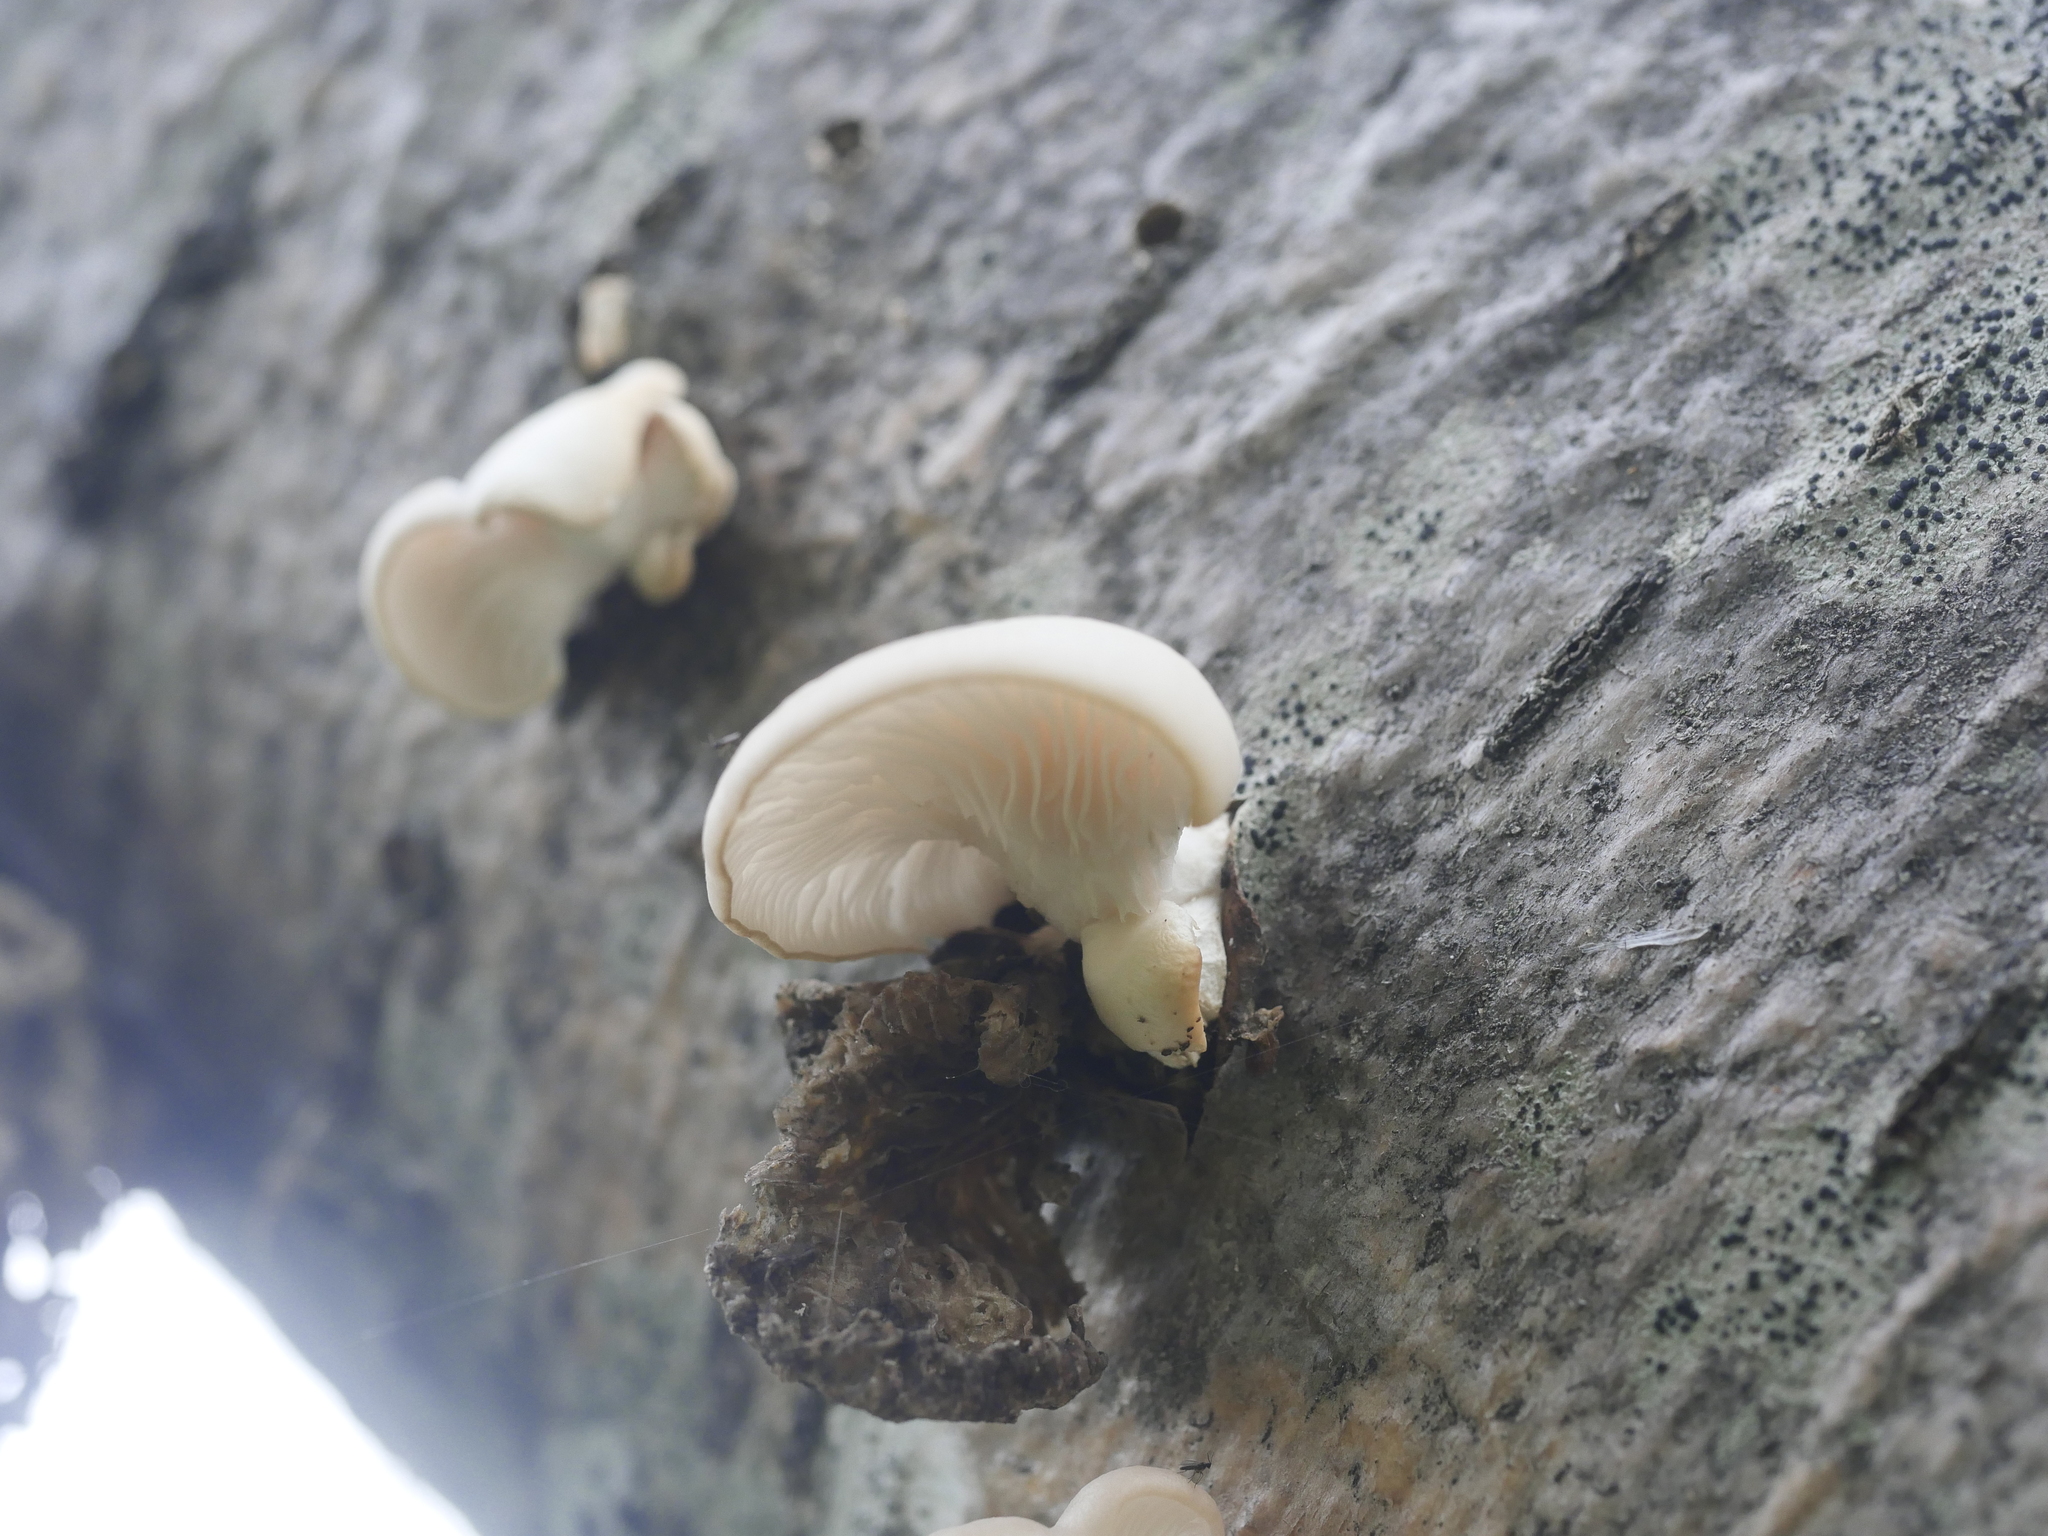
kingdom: Fungi
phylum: Basidiomycota
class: Agaricomycetes
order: Agaricales
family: Pleurotaceae
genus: Pleurotus
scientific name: Pleurotus pulmonarius
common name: Pale oyster
